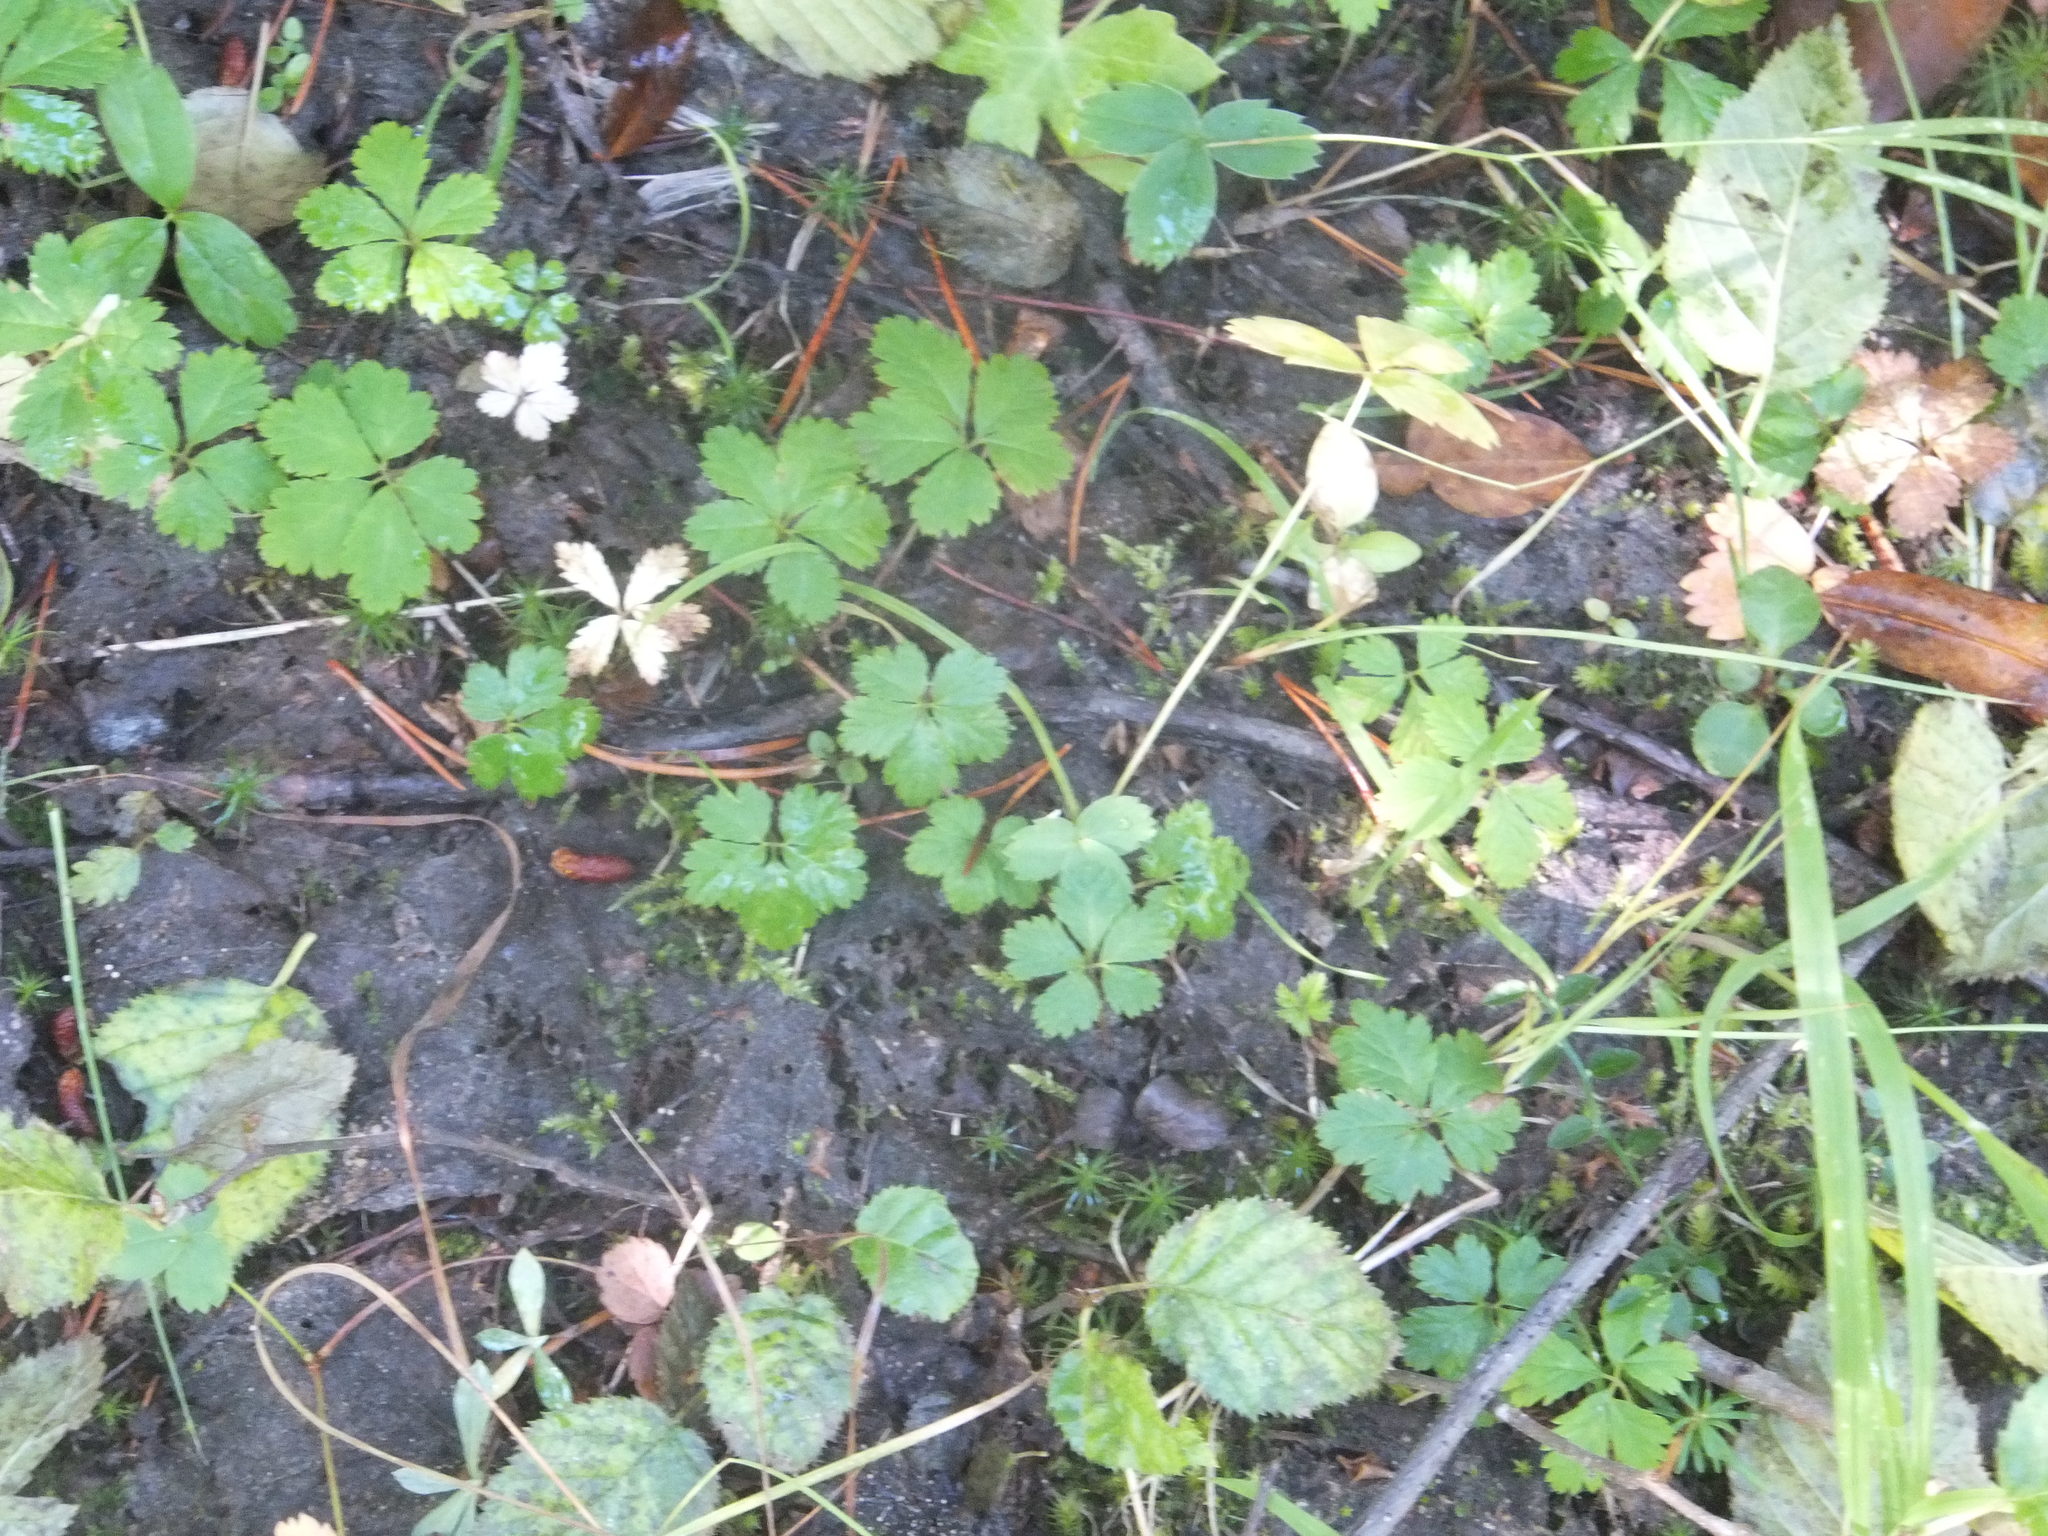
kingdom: Plantae
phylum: Tracheophyta
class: Magnoliopsida
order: Rosales
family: Rosaceae
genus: Rubus
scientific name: Rubus pedatus
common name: Creeping raspberry
